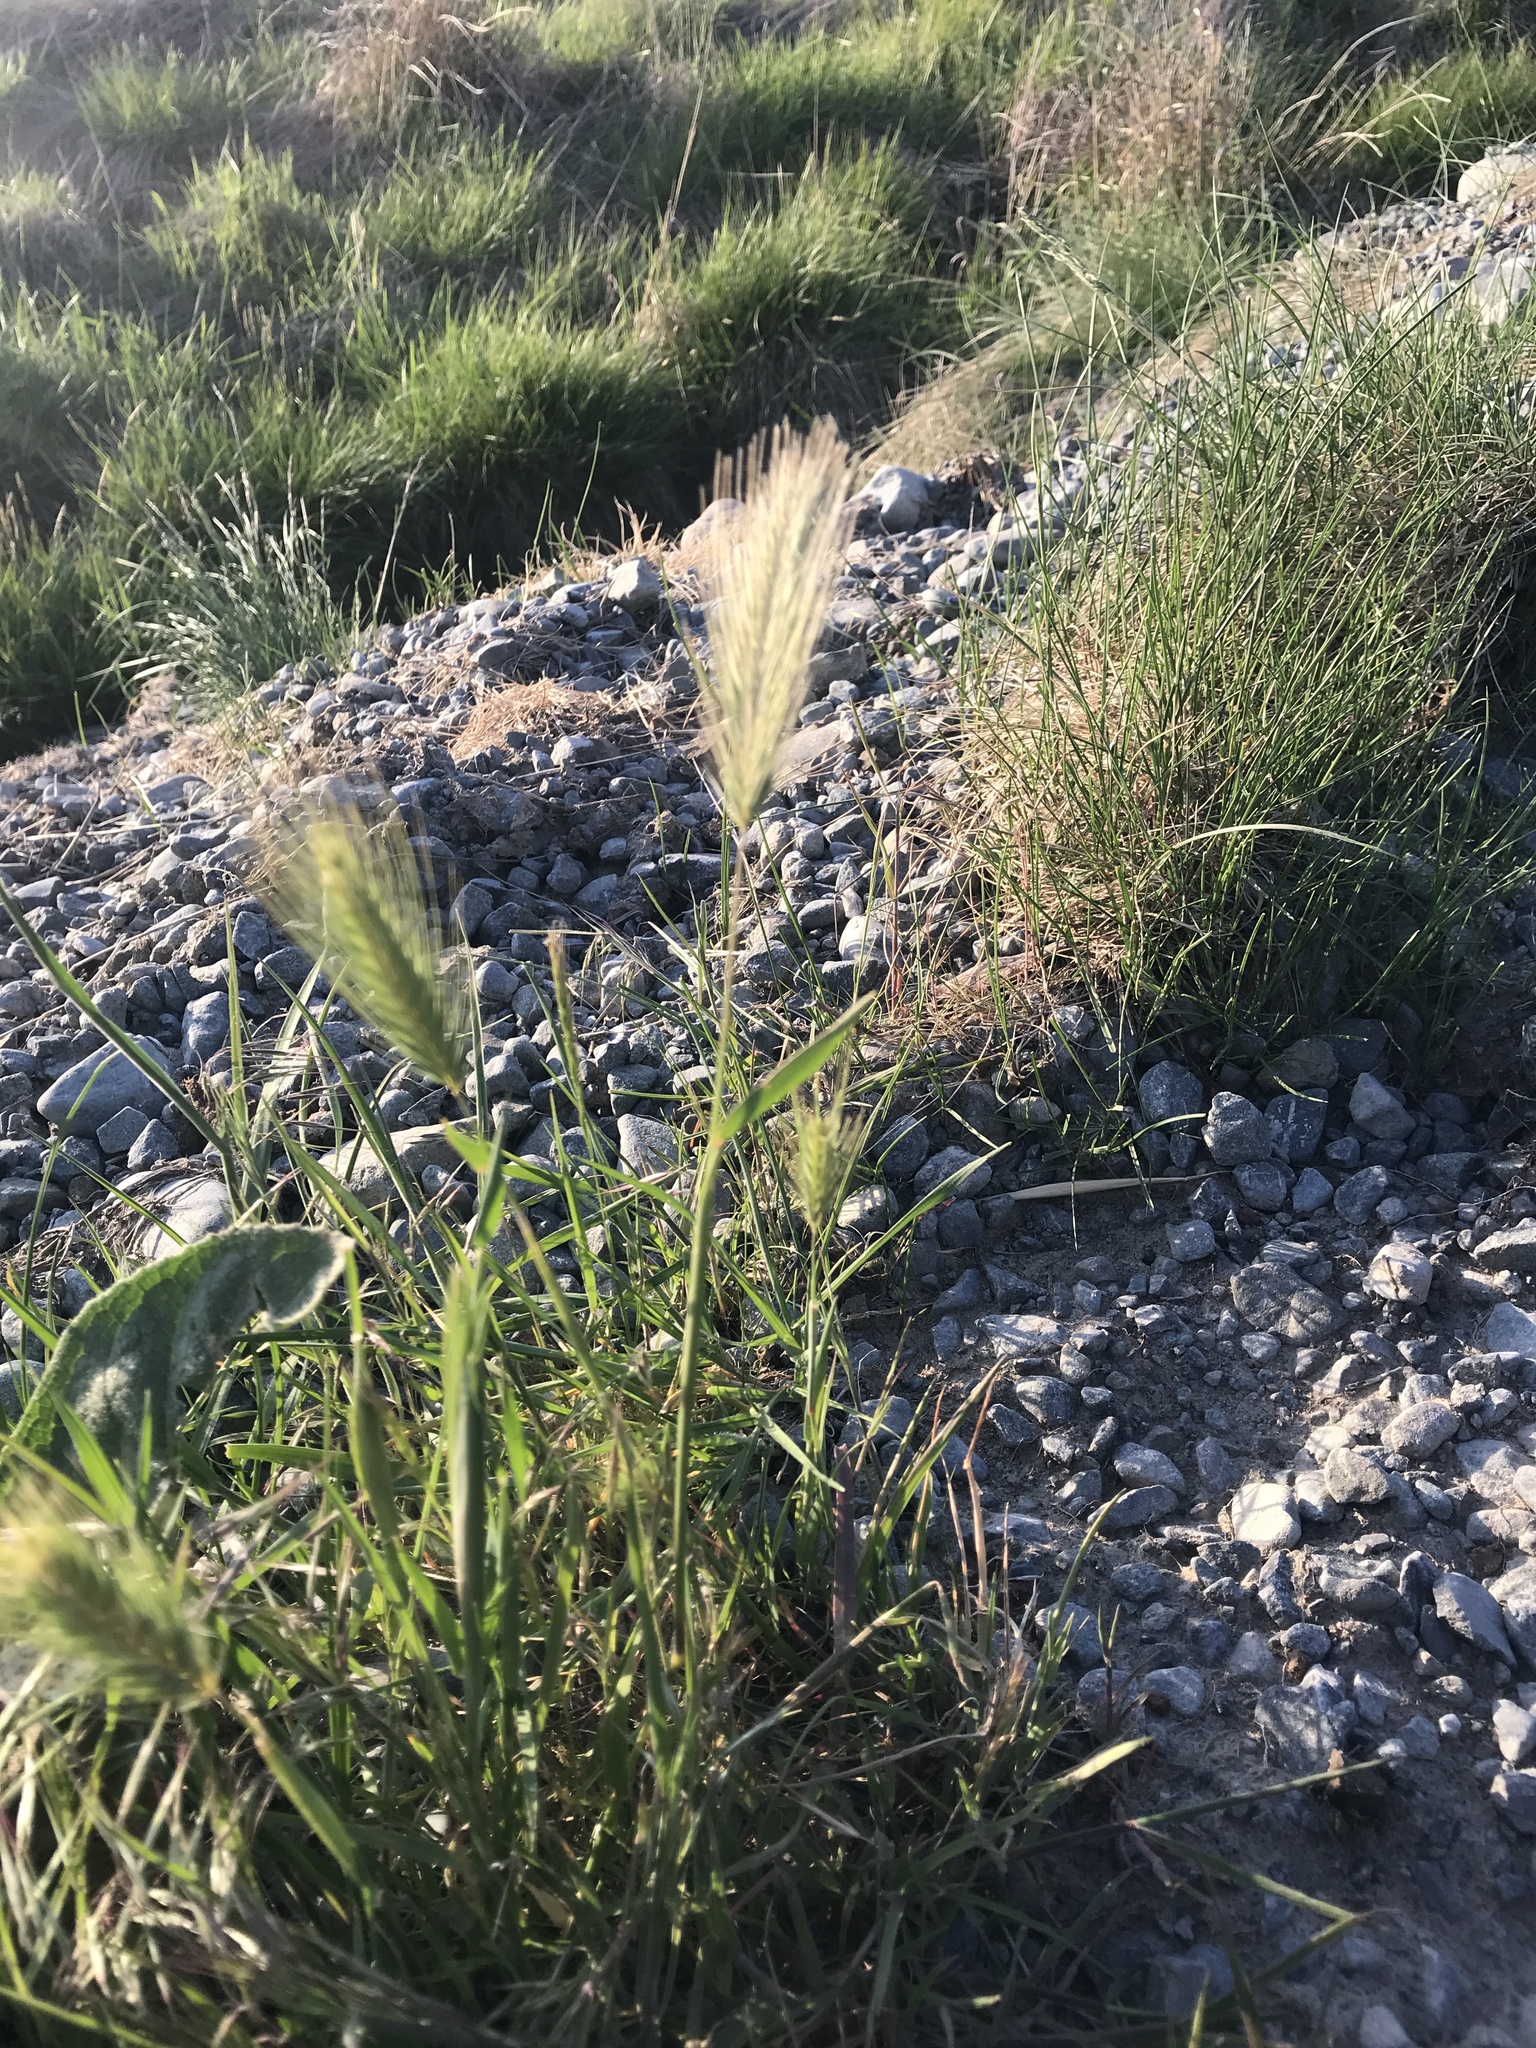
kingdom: Plantae
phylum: Tracheophyta
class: Liliopsida
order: Poales
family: Poaceae
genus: Hordeum
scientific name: Hordeum murinum
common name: Wall barley
